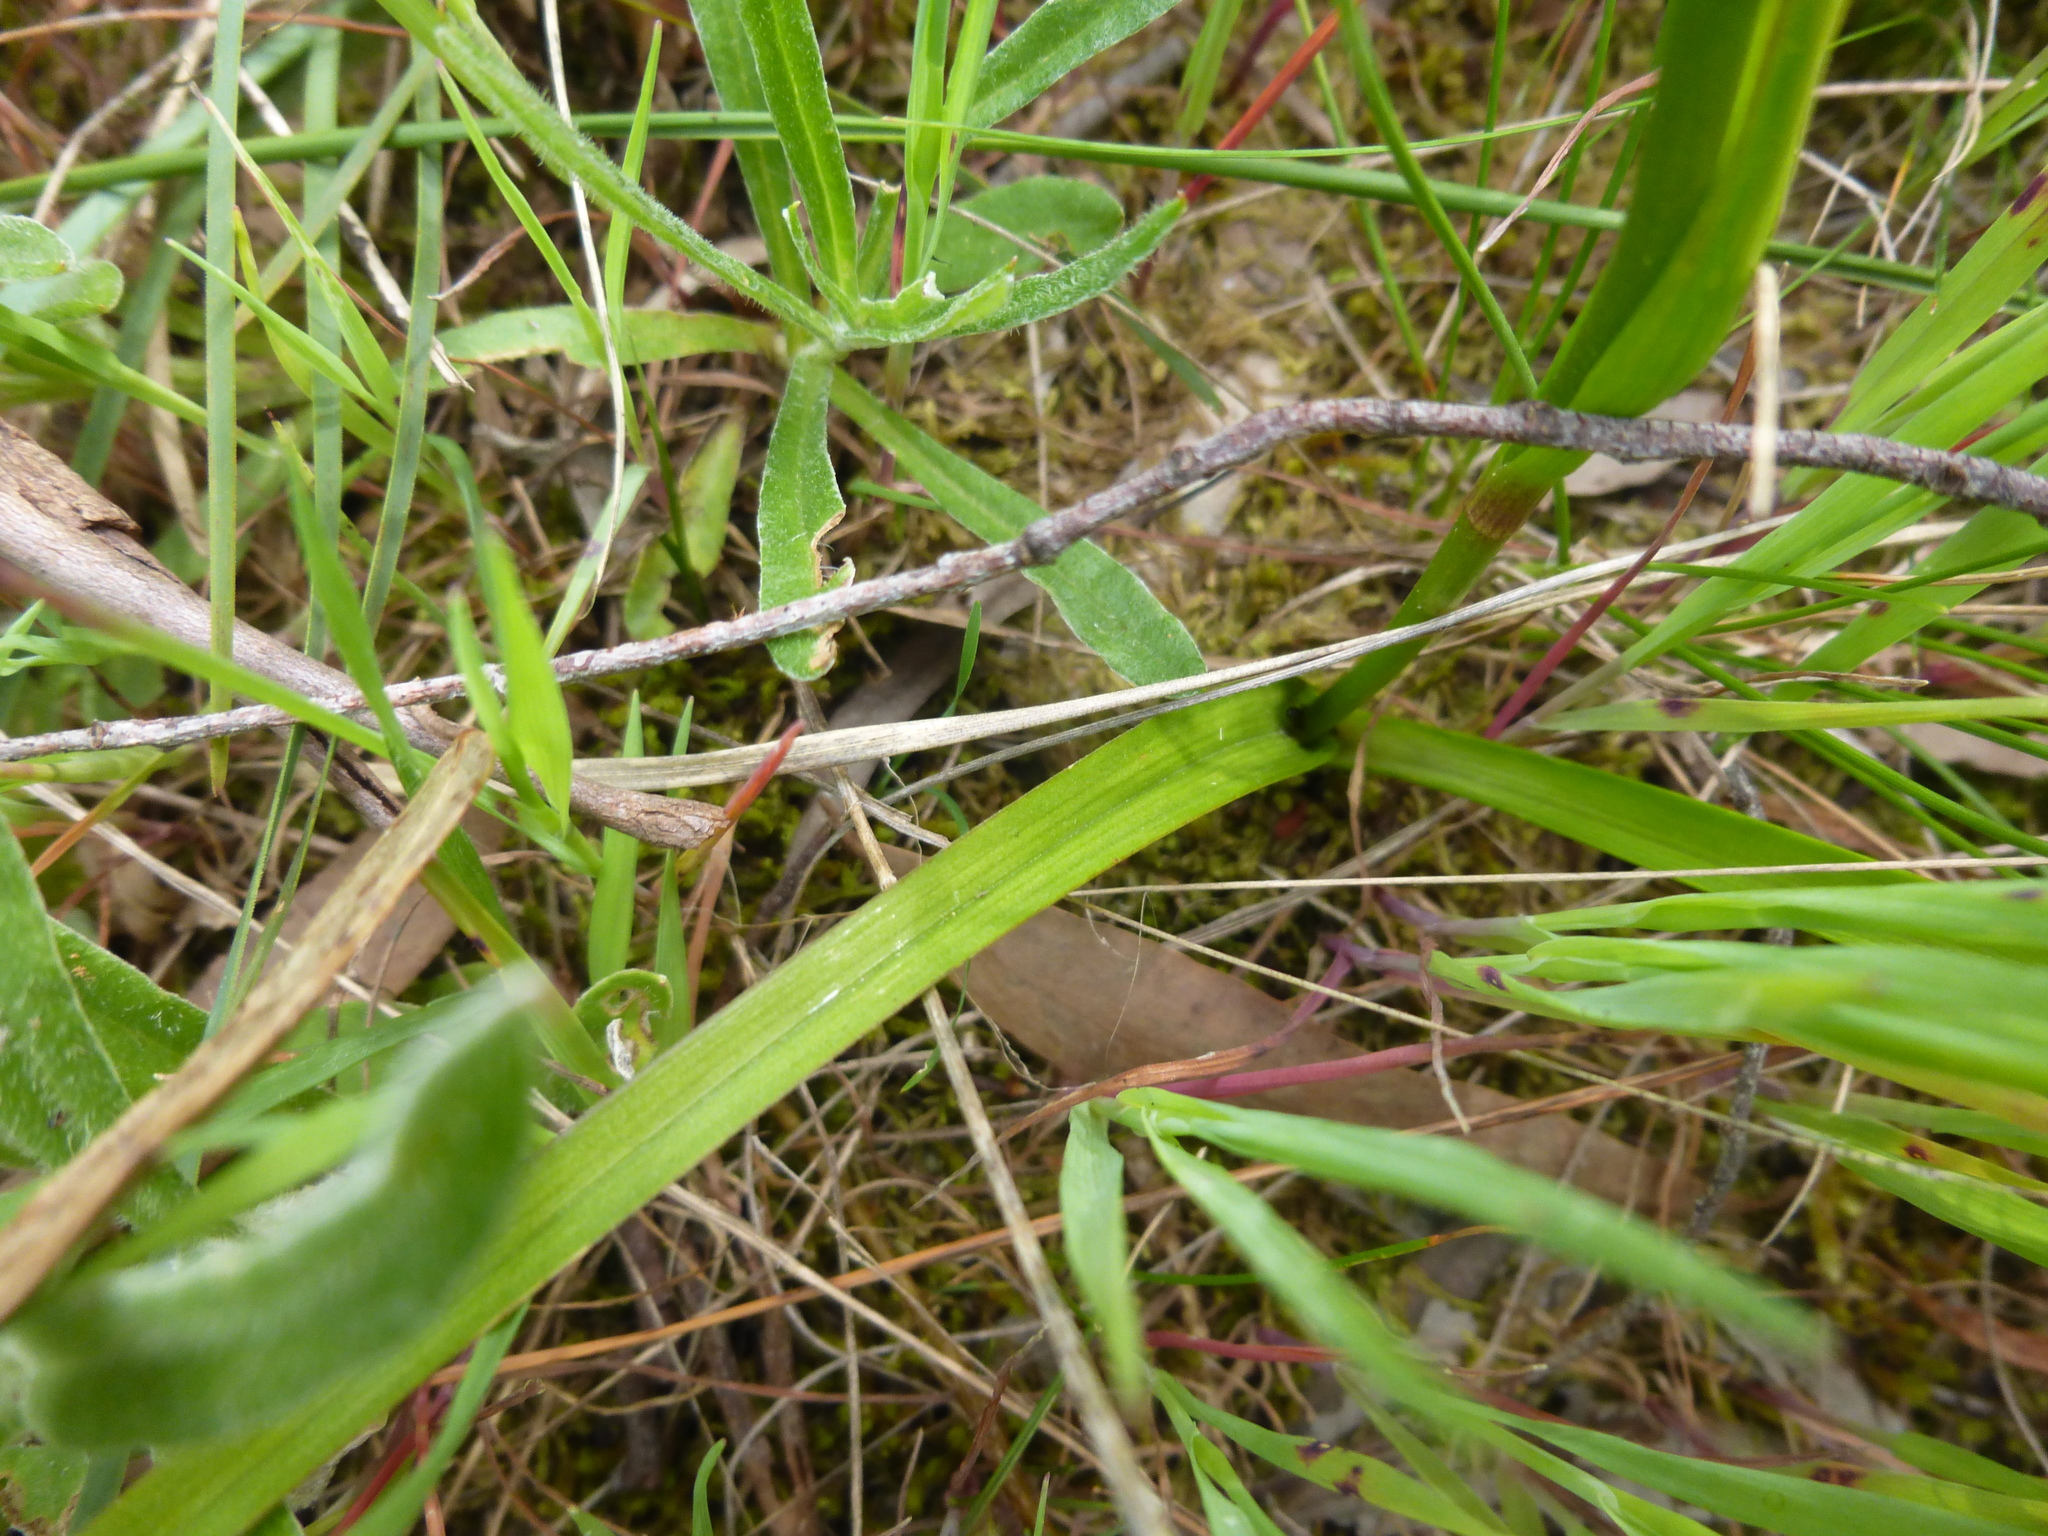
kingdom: Plantae
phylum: Tracheophyta
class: Liliopsida
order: Liliales
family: Colchicaceae
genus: Burchardia
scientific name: Burchardia umbellata
